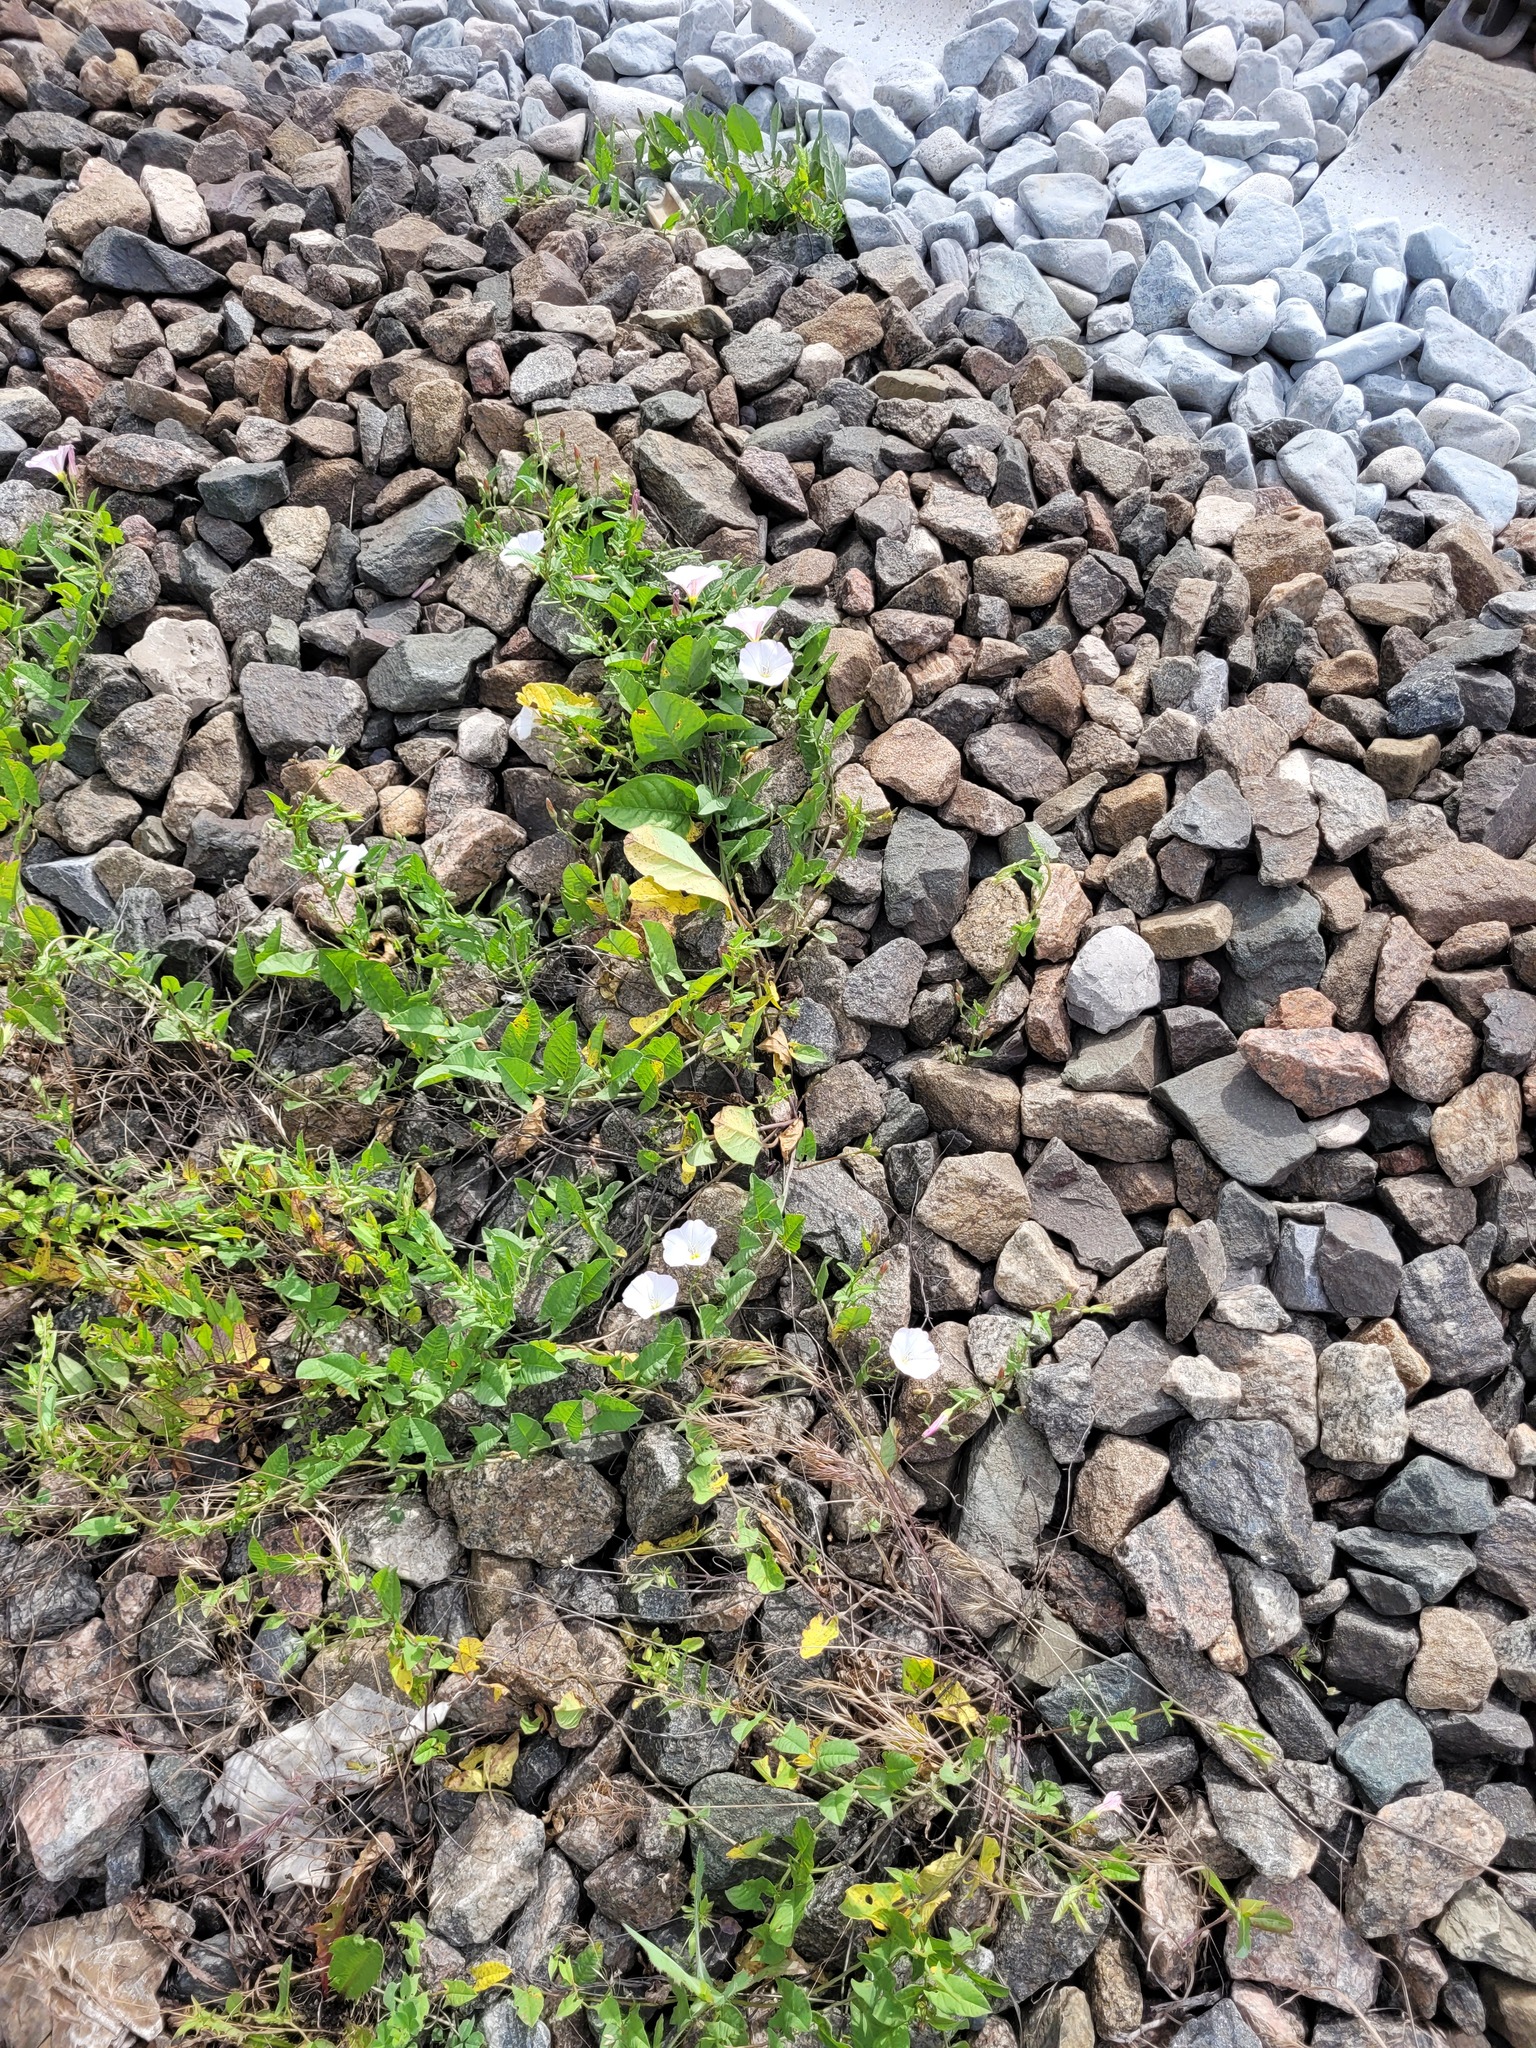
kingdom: Plantae
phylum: Tracheophyta
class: Magnoliopsida
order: Solanales
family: Convolvulaceae
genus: Convolvulus
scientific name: Convolvulus arvensis
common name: Field bindweed
